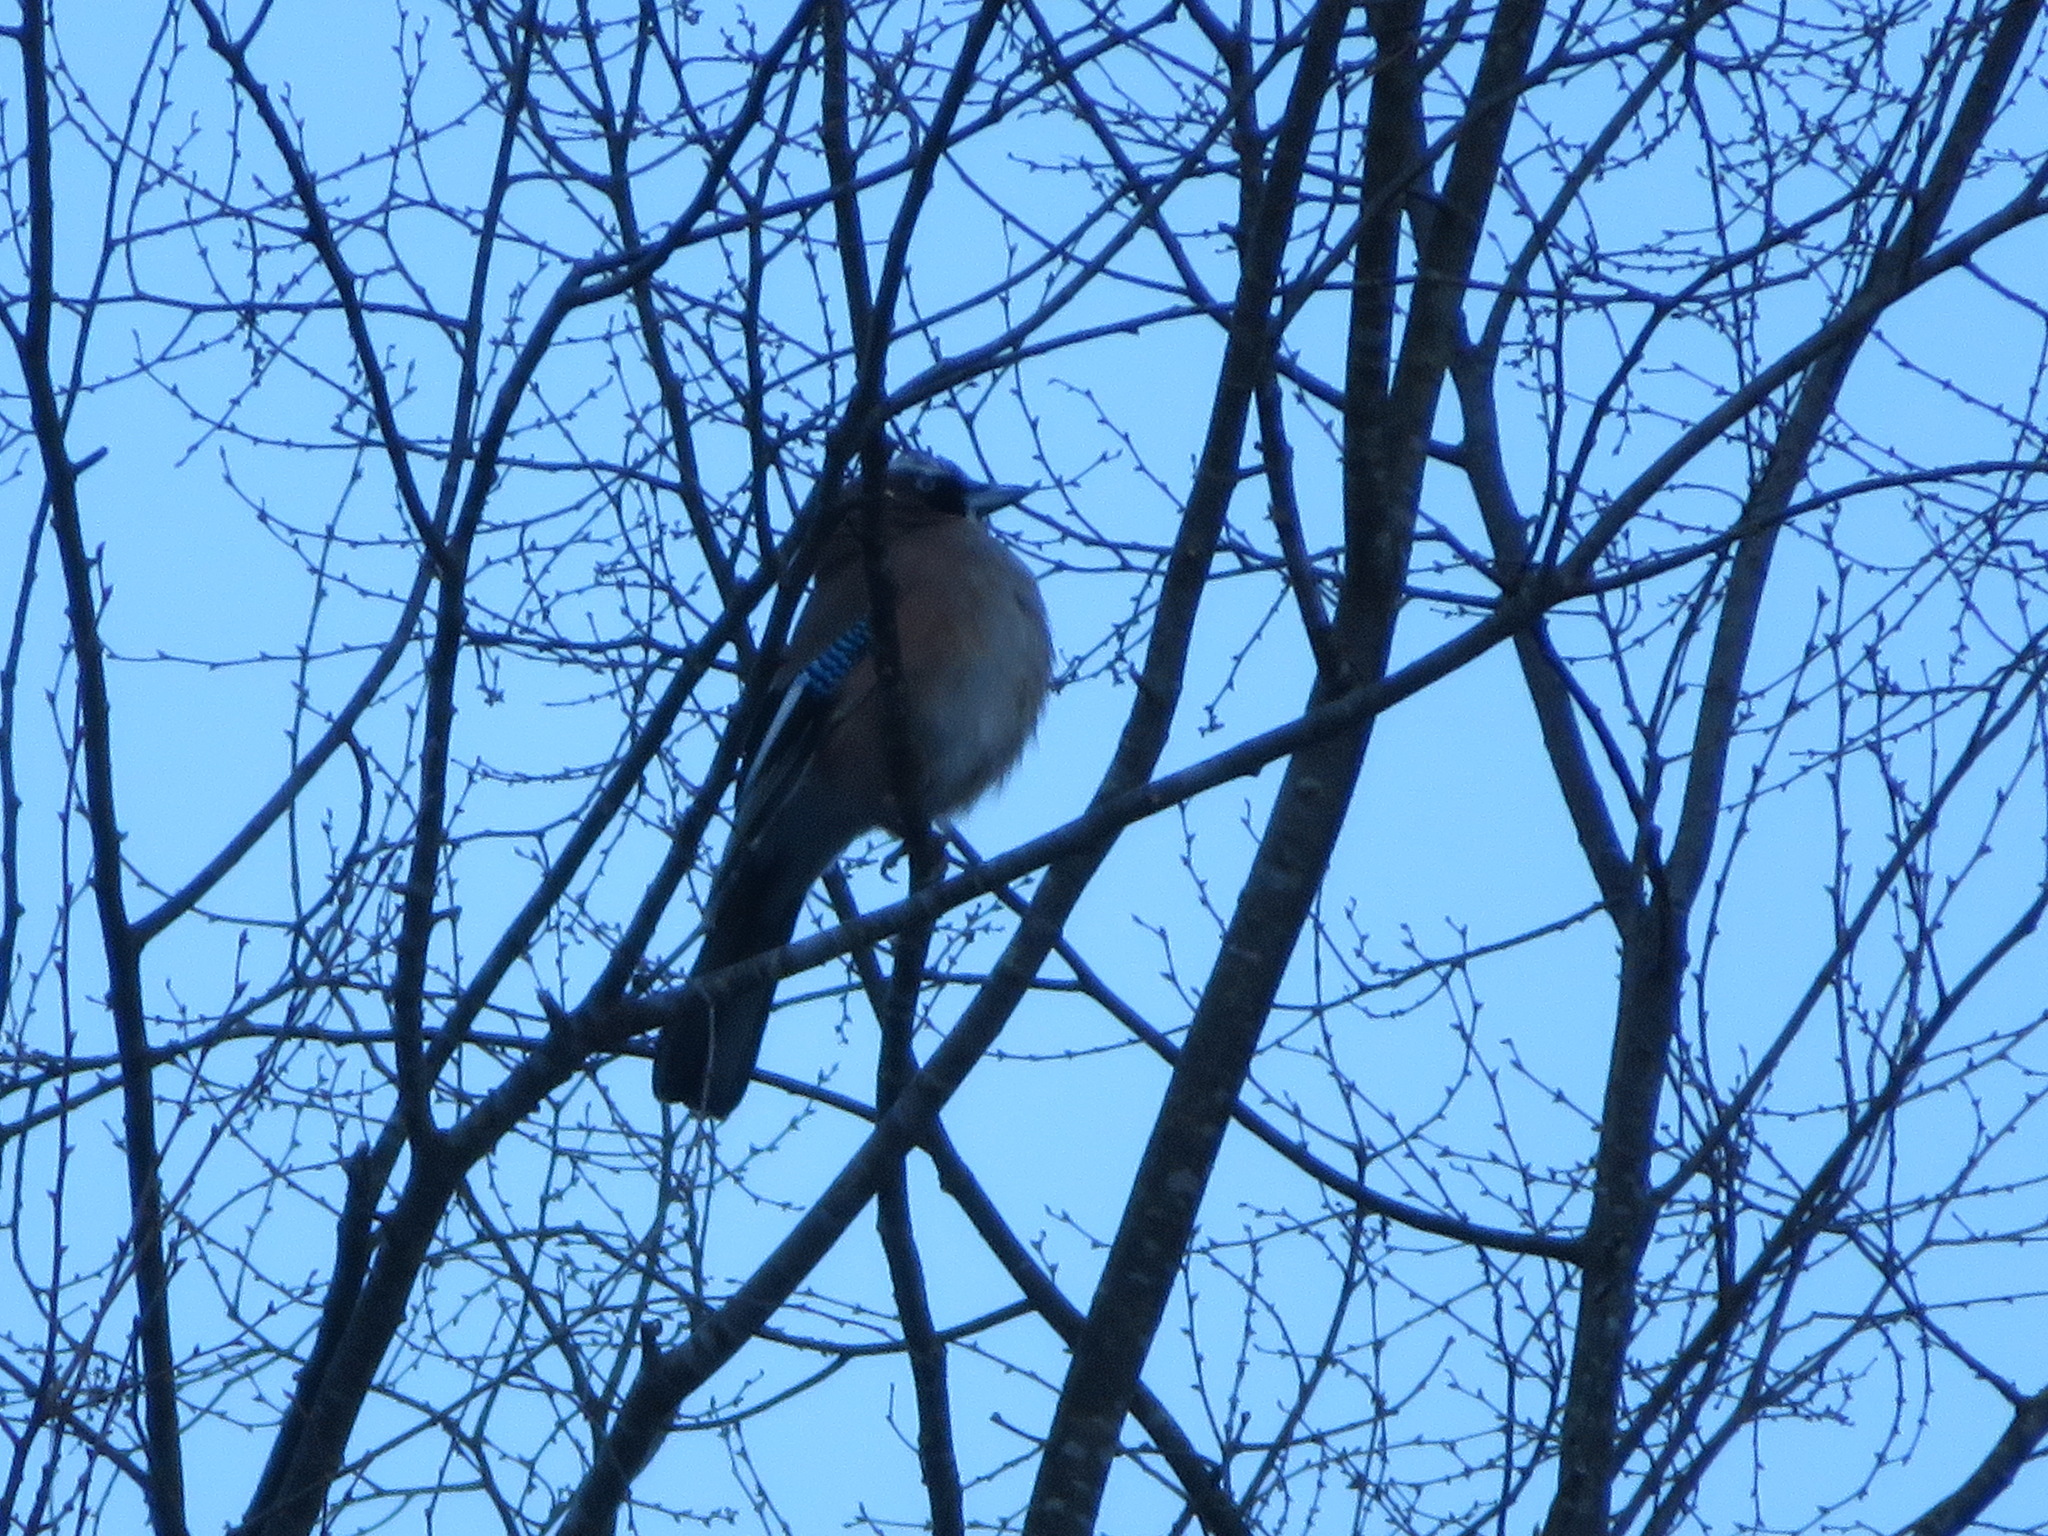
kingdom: Animalia
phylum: Chordata
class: Aves
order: Passeriformes
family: Corvidae
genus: Garrulus
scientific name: Garrulus glandarius
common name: Eurasian jay
